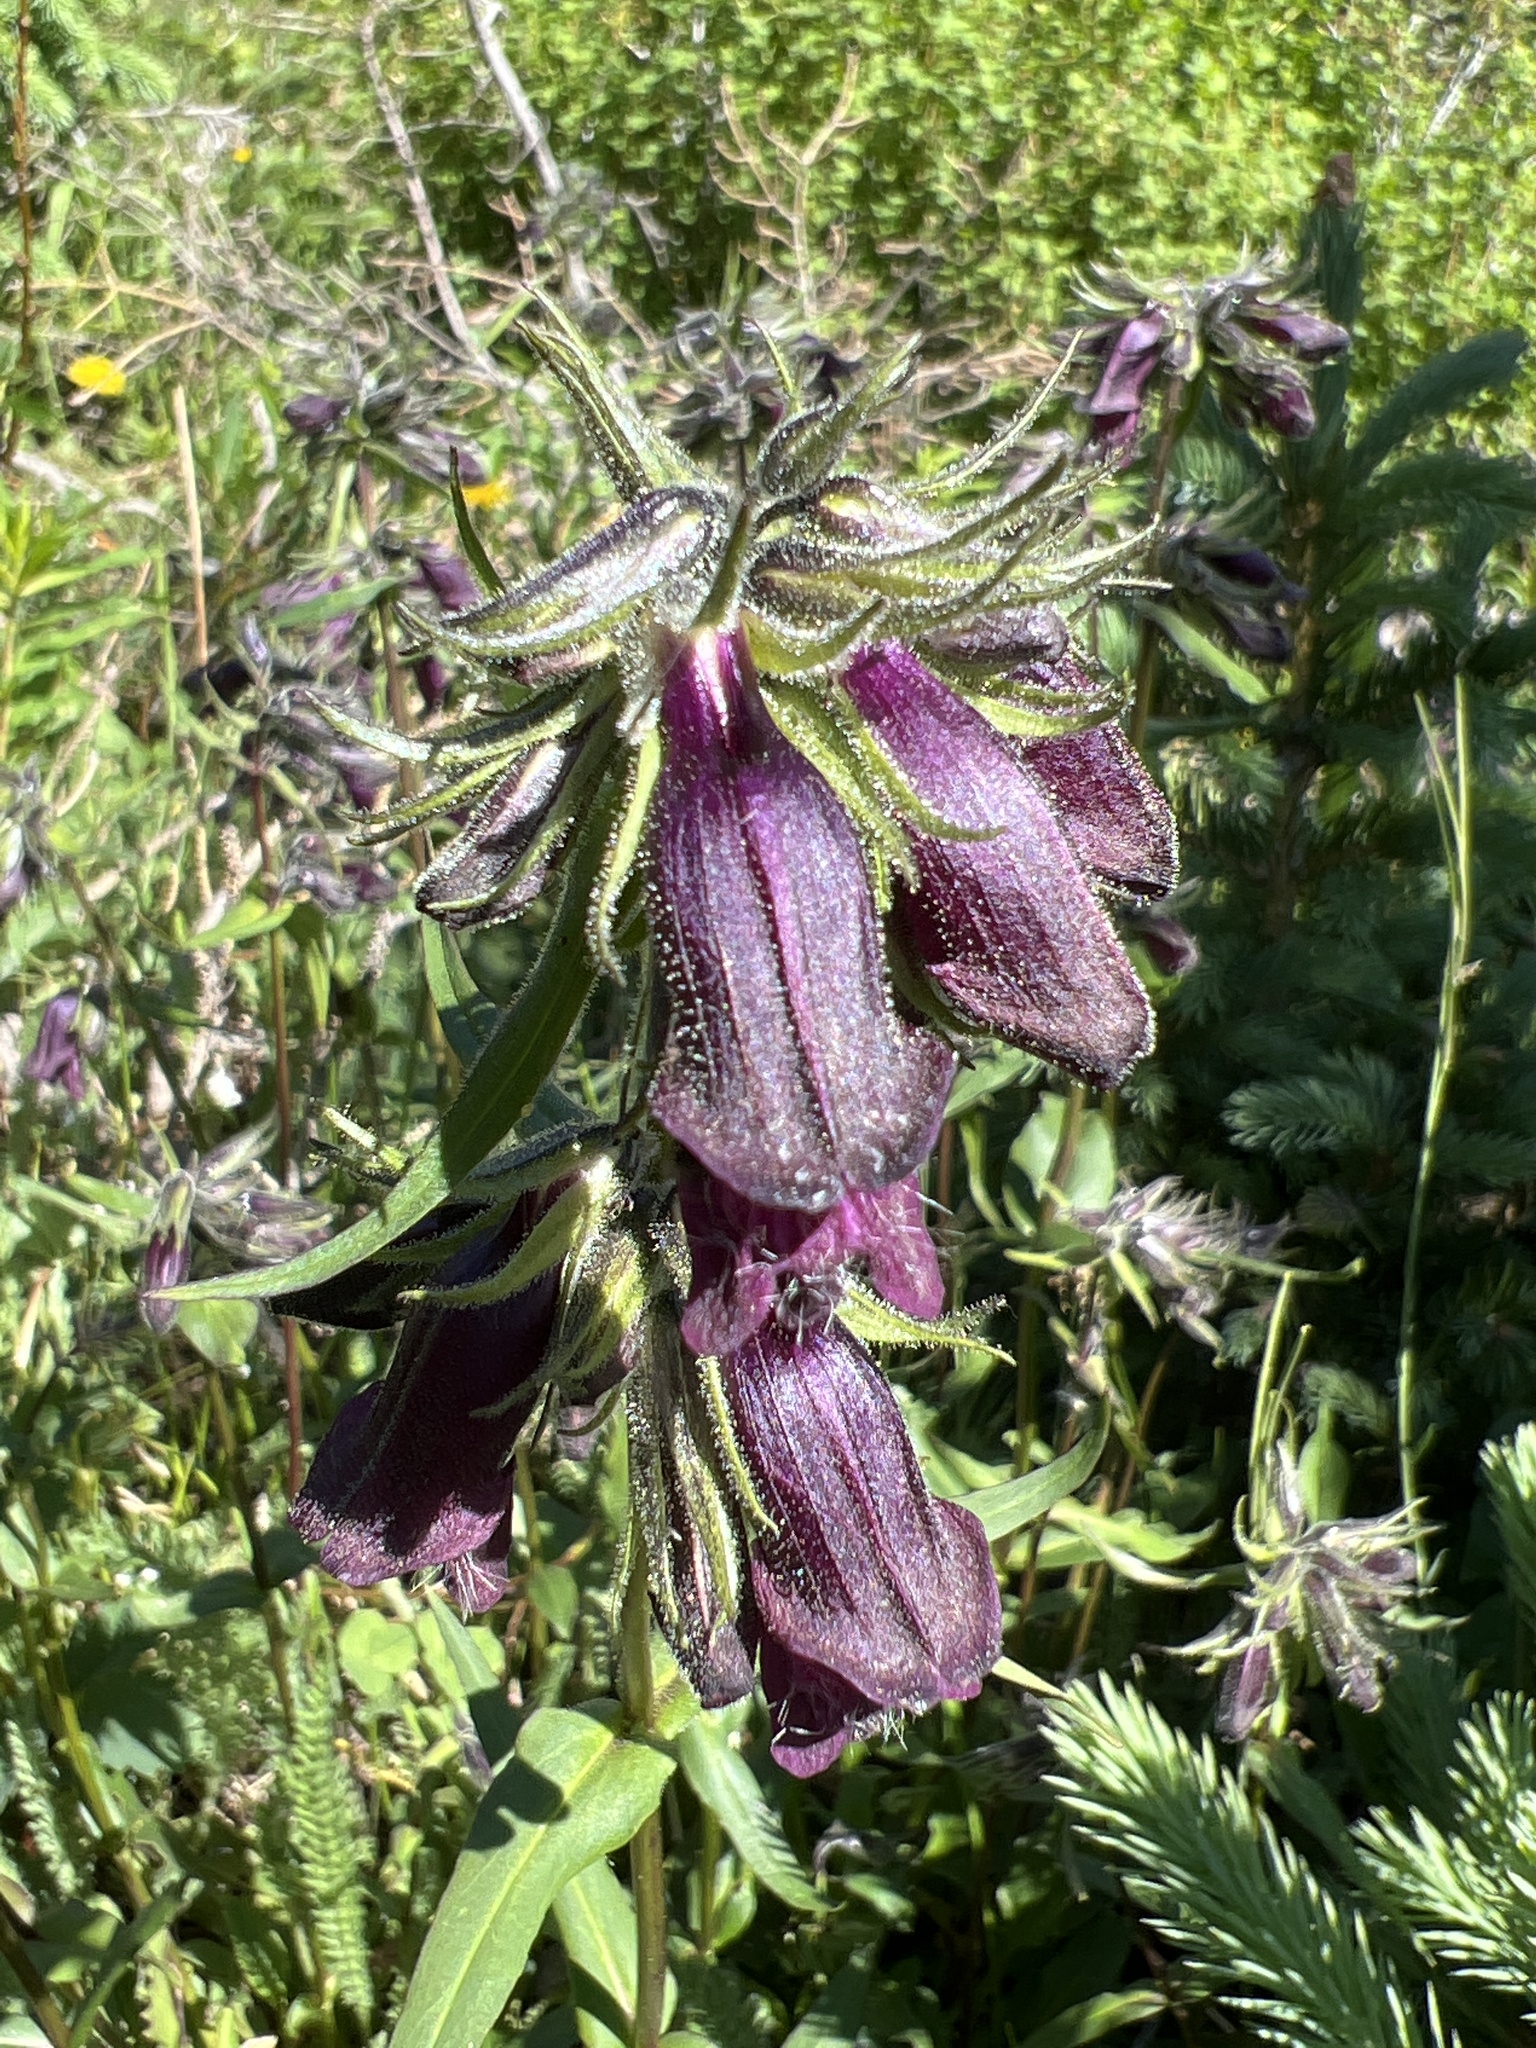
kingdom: Plantae
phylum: Tracheophyta
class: Magnoliopsida
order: Lamiales
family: Plantaginaceae
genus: Penstemon
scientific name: Penstemon whippleanus
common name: Whipple's penstemon
